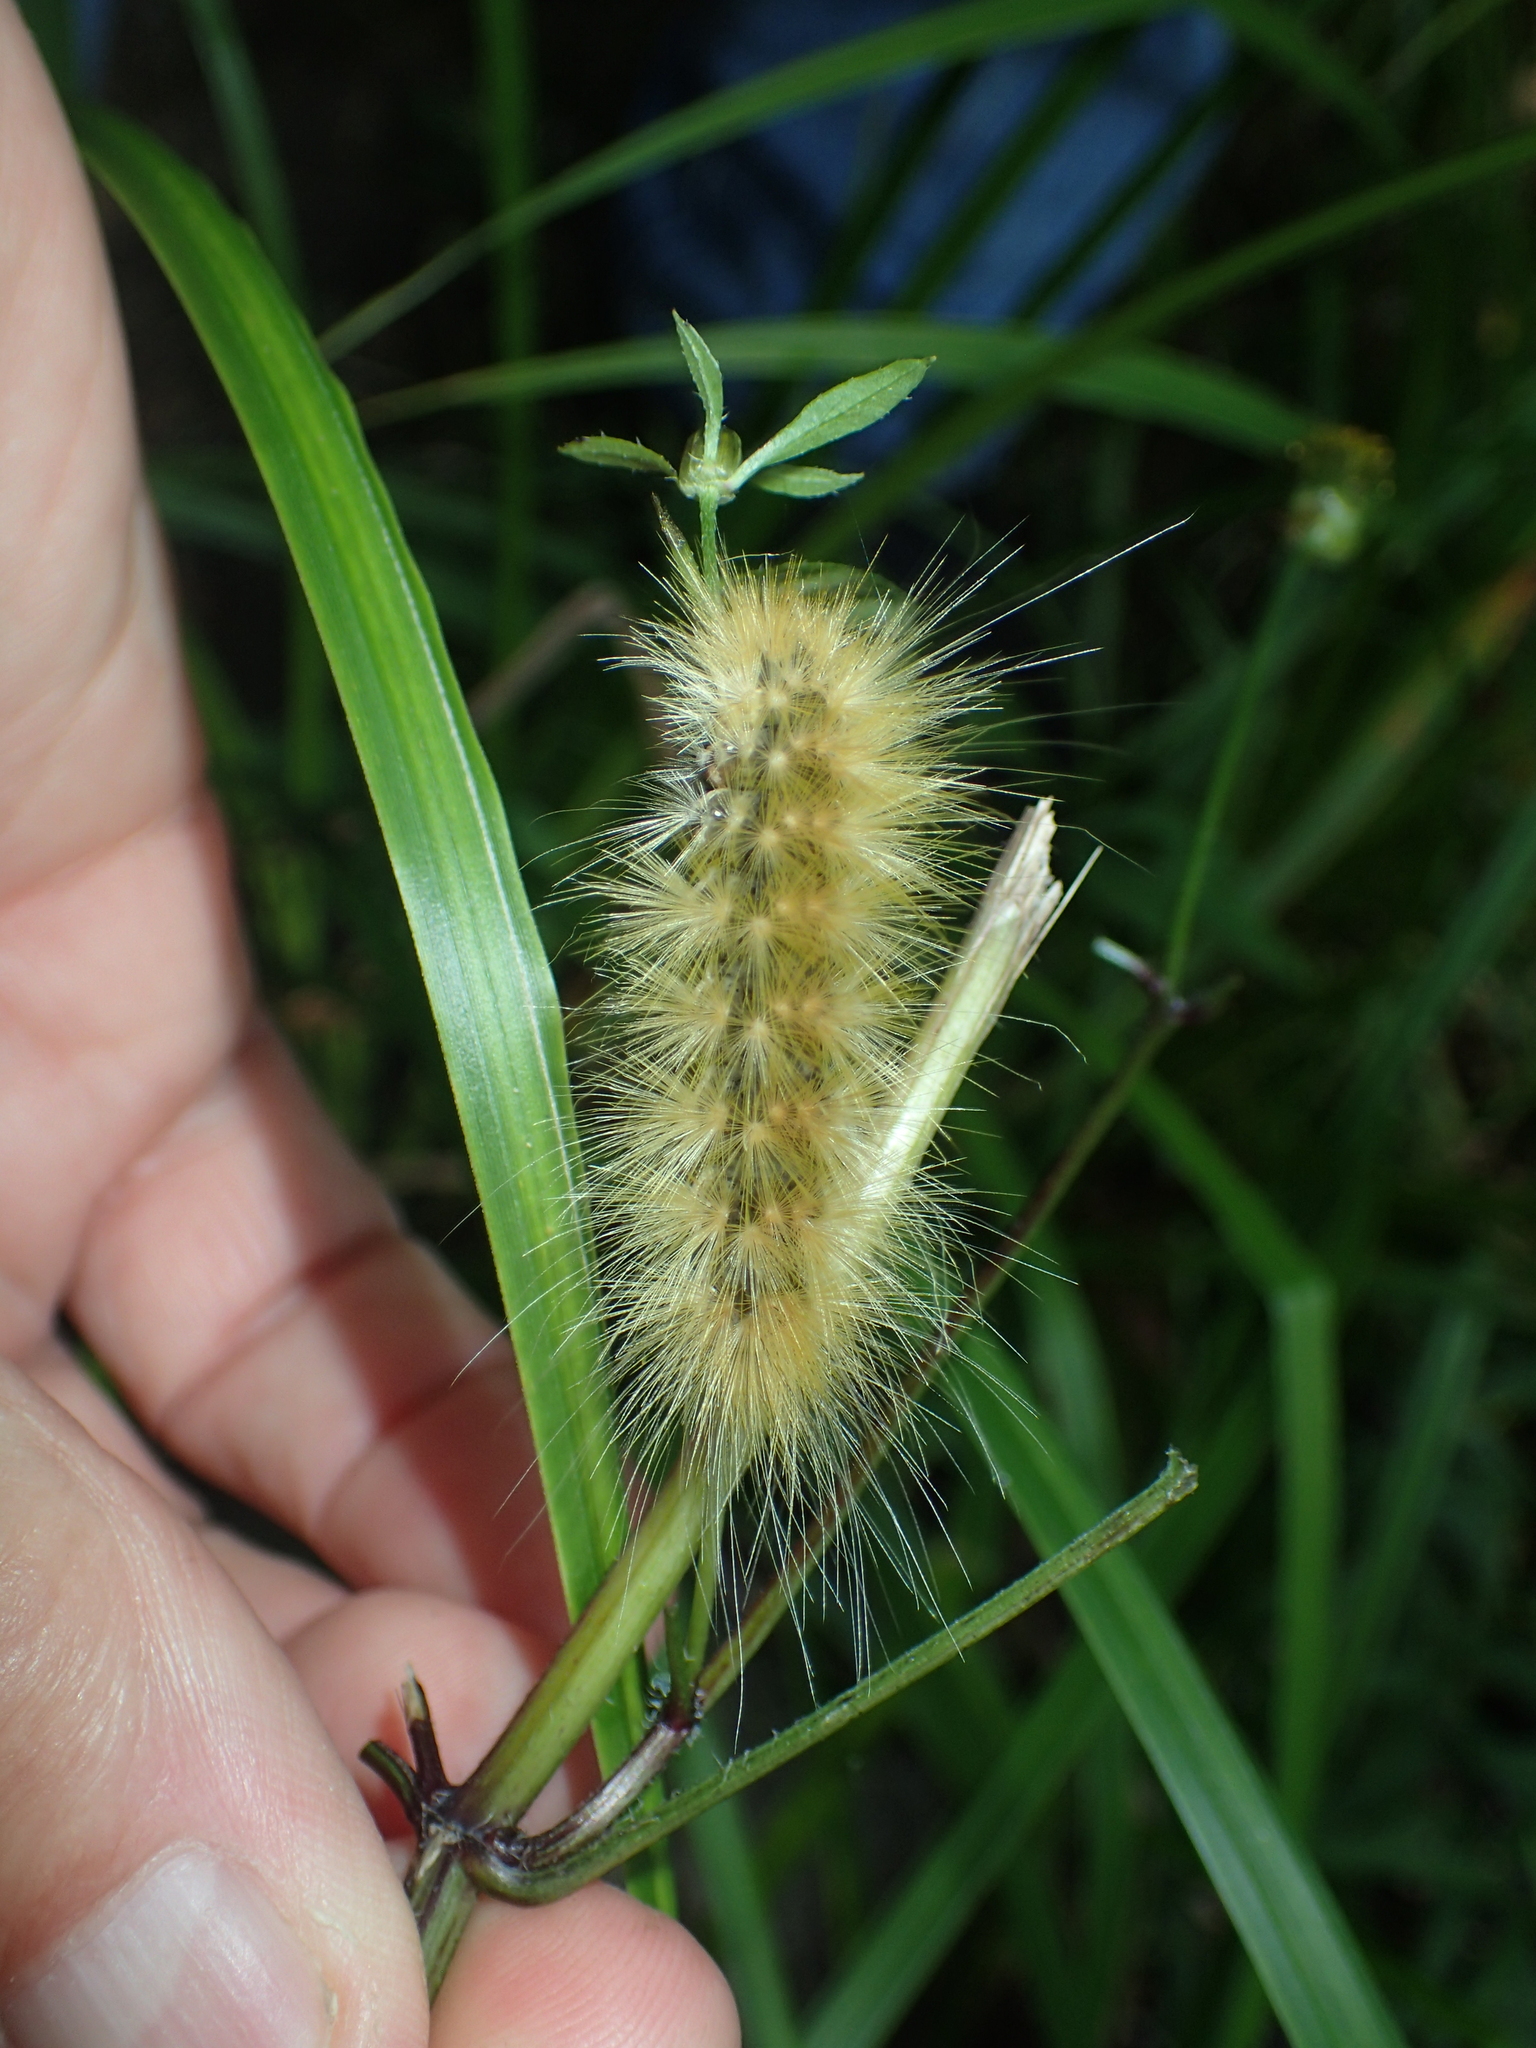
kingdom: Animalia
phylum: Arthropoda
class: Insecta
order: Lepidoptera
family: Erebidae
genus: Spilosoma
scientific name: Spilosoma virginica
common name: Virginia tiger moth
